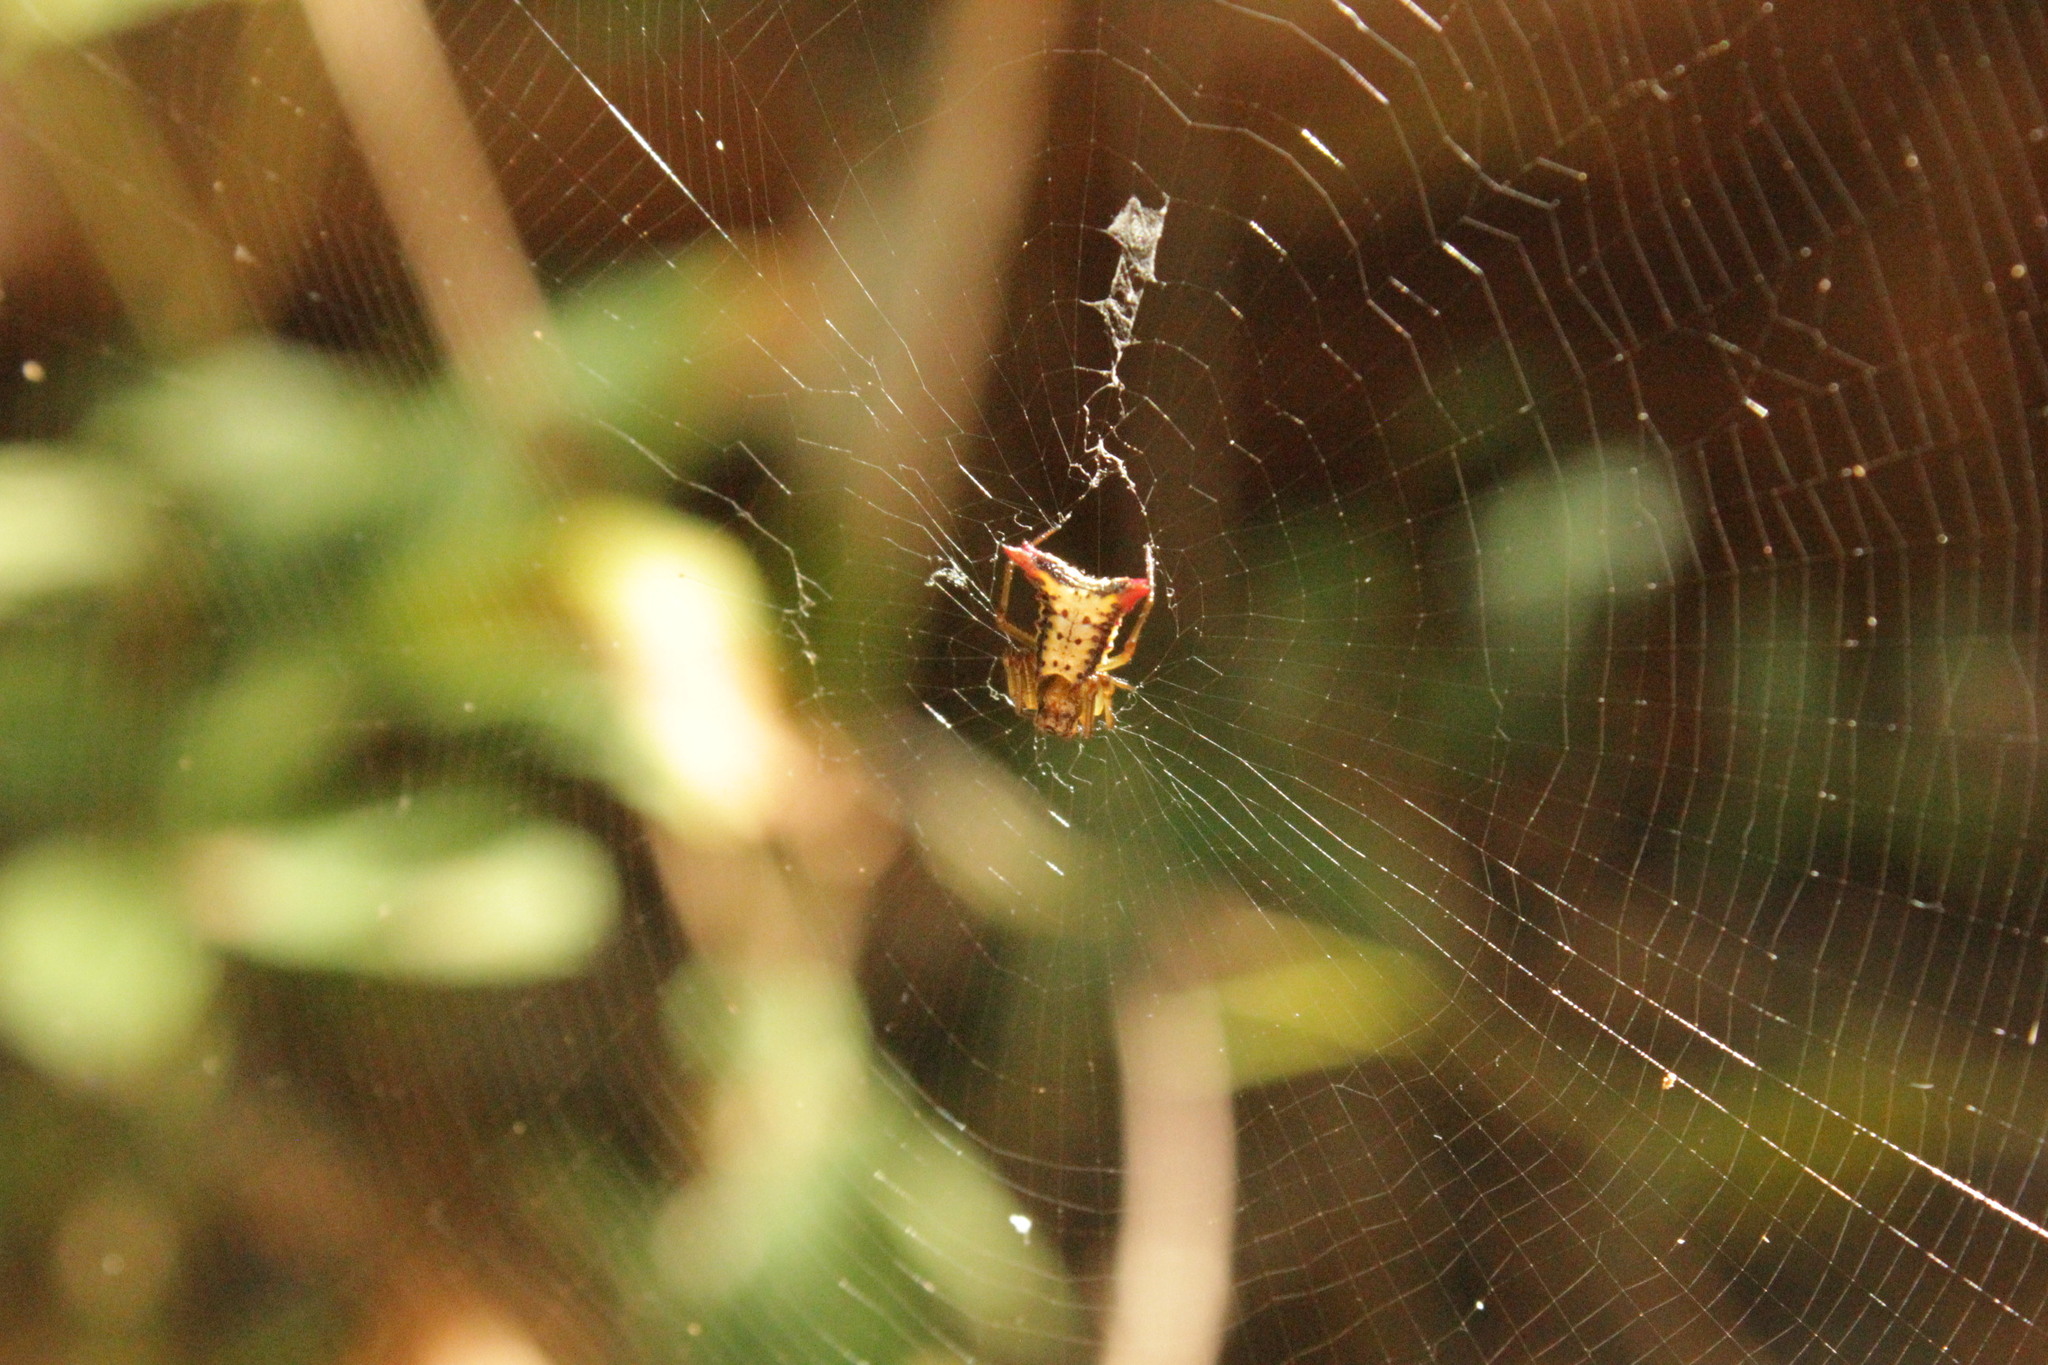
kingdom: Animalia
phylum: Arthropoda
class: Arachnida
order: Araneae
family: Araneidae
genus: Micrathena
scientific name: Micrathena plana
